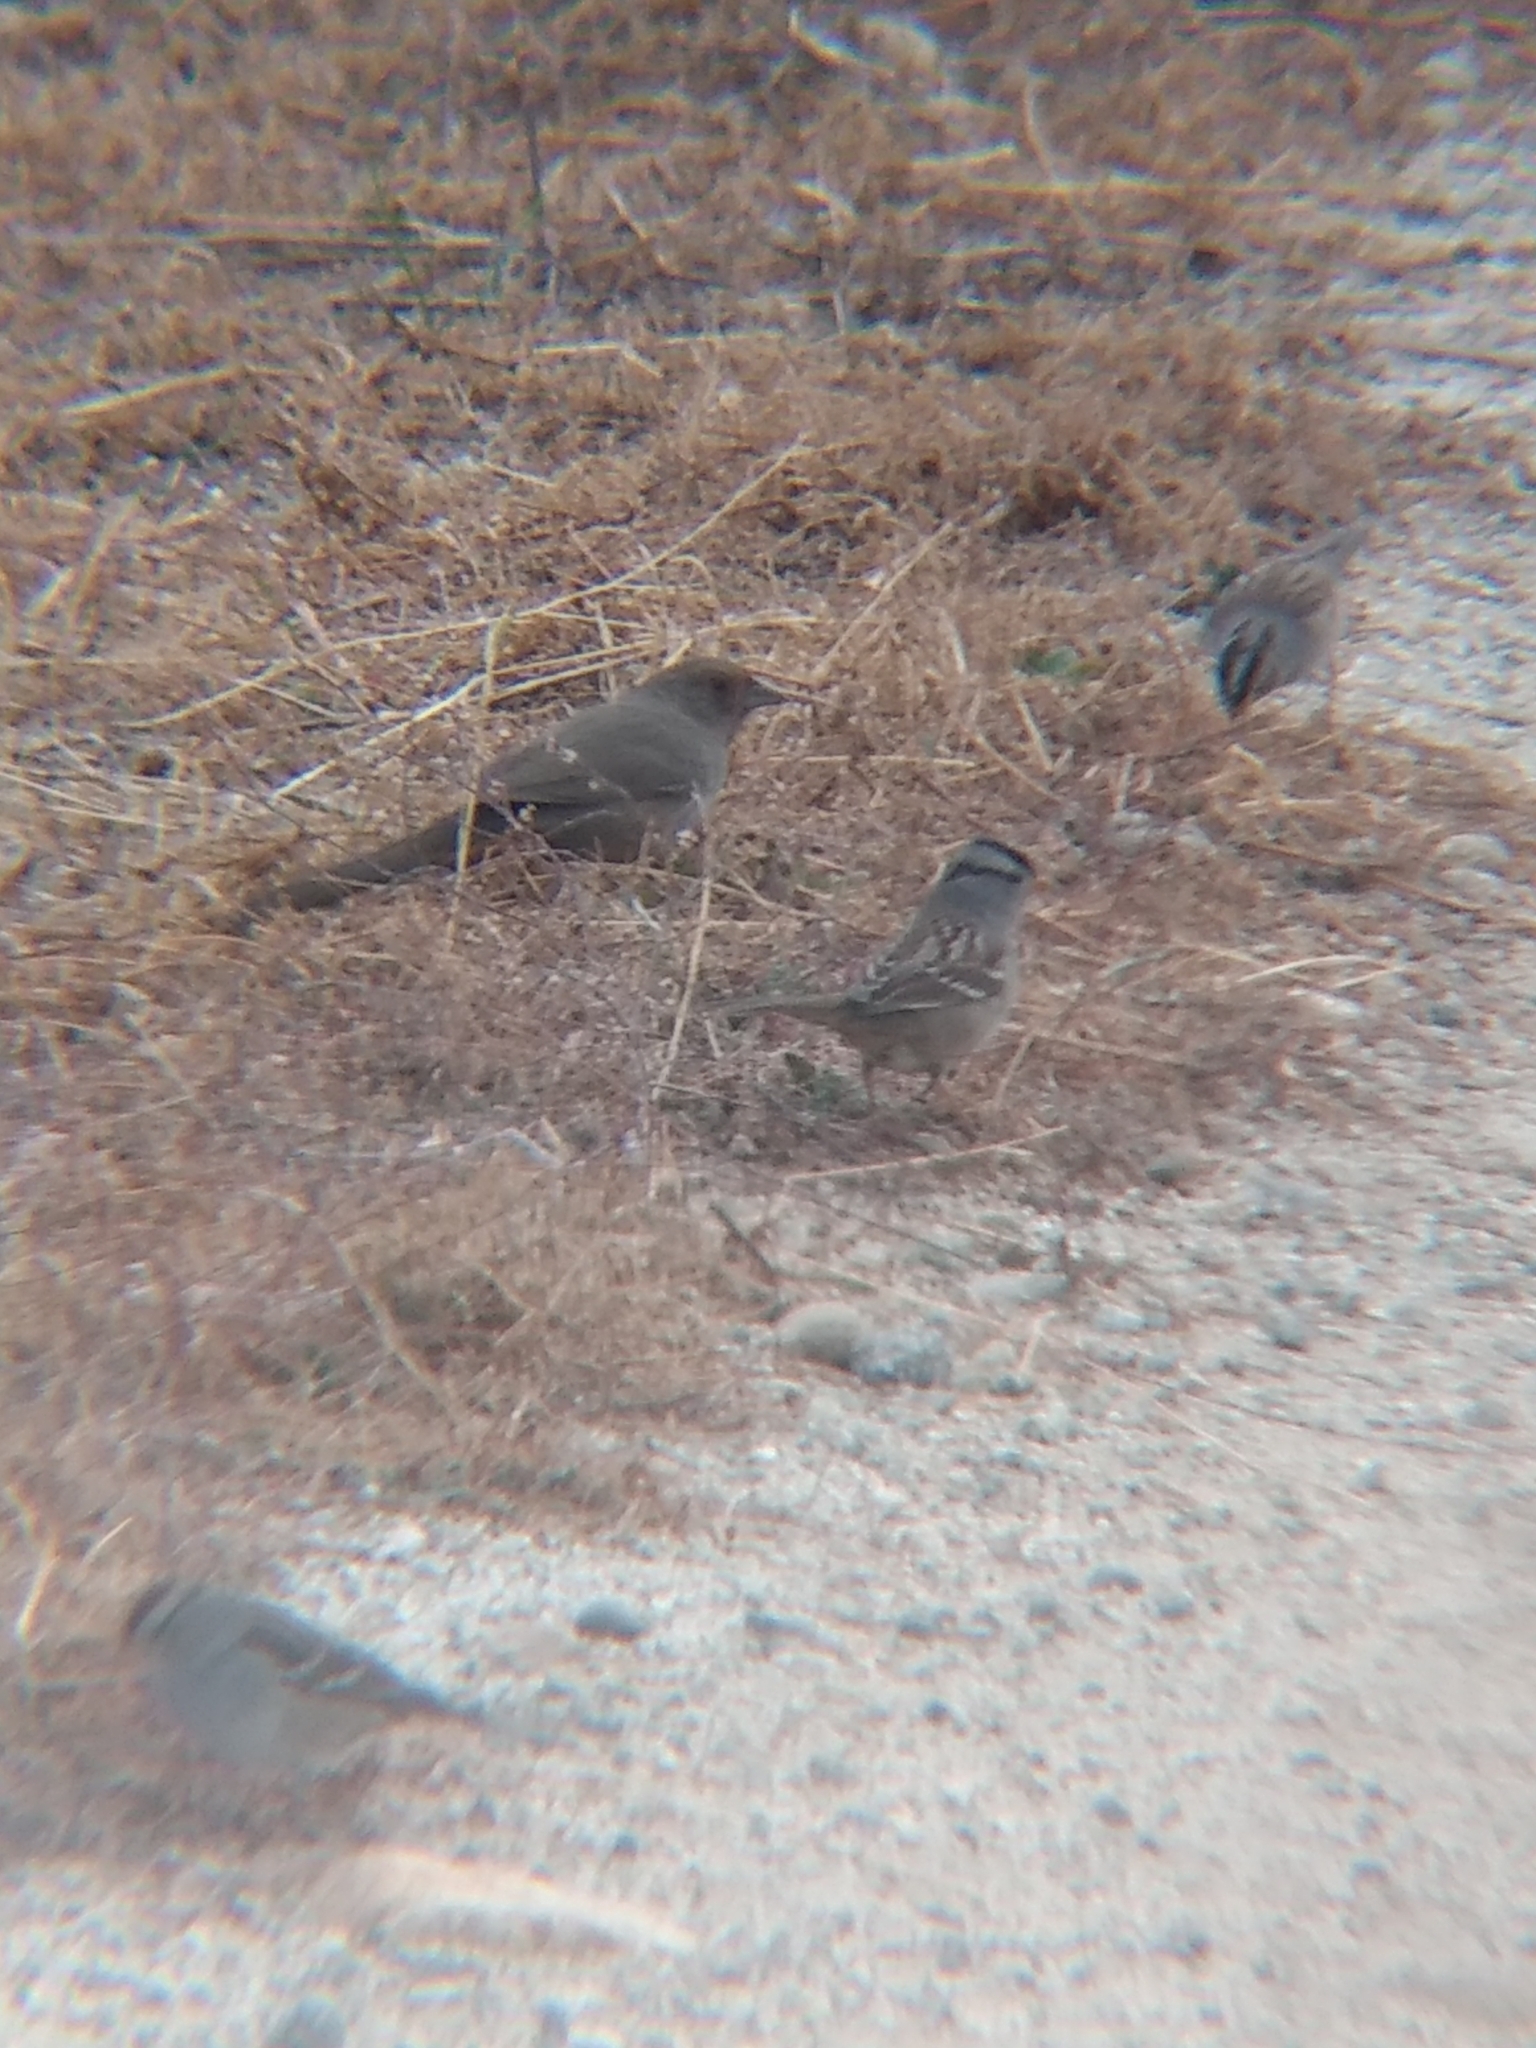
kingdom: Animalia
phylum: Chordata
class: Aves
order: Passeriformes
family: Passerellidae
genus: Melozone
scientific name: Melozone crissalis
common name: California towhee
